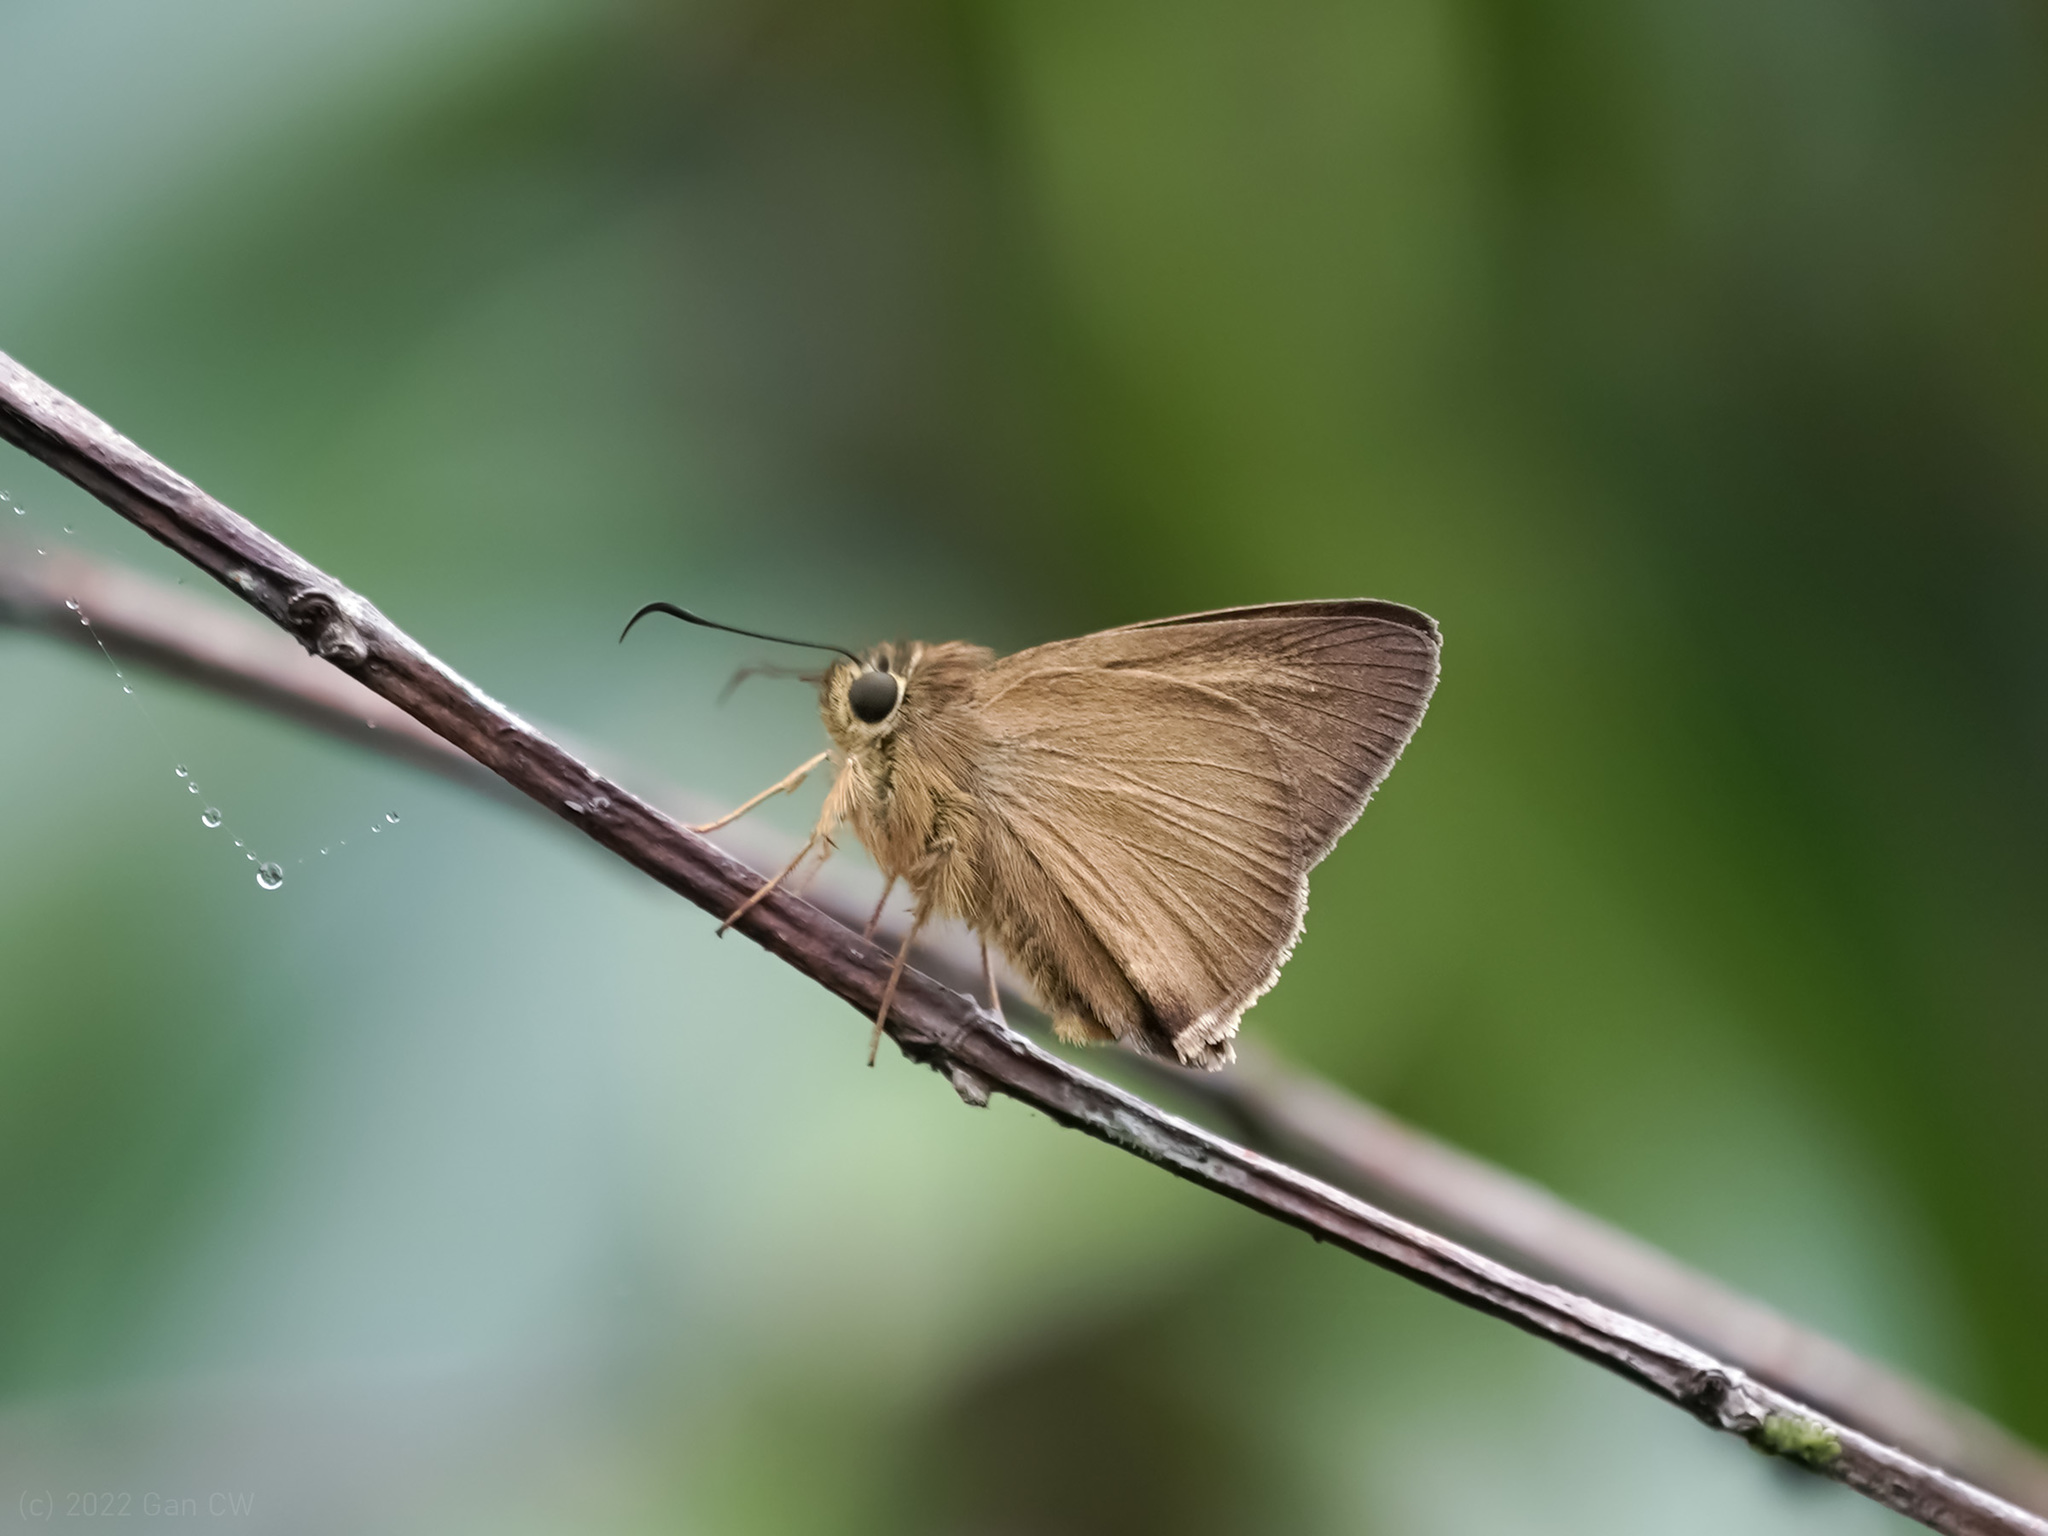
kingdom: Animalia
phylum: Arthropoda
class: Insecta
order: Lepidoptera
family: Hesperiidae
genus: Hasora
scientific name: Hasora mus
